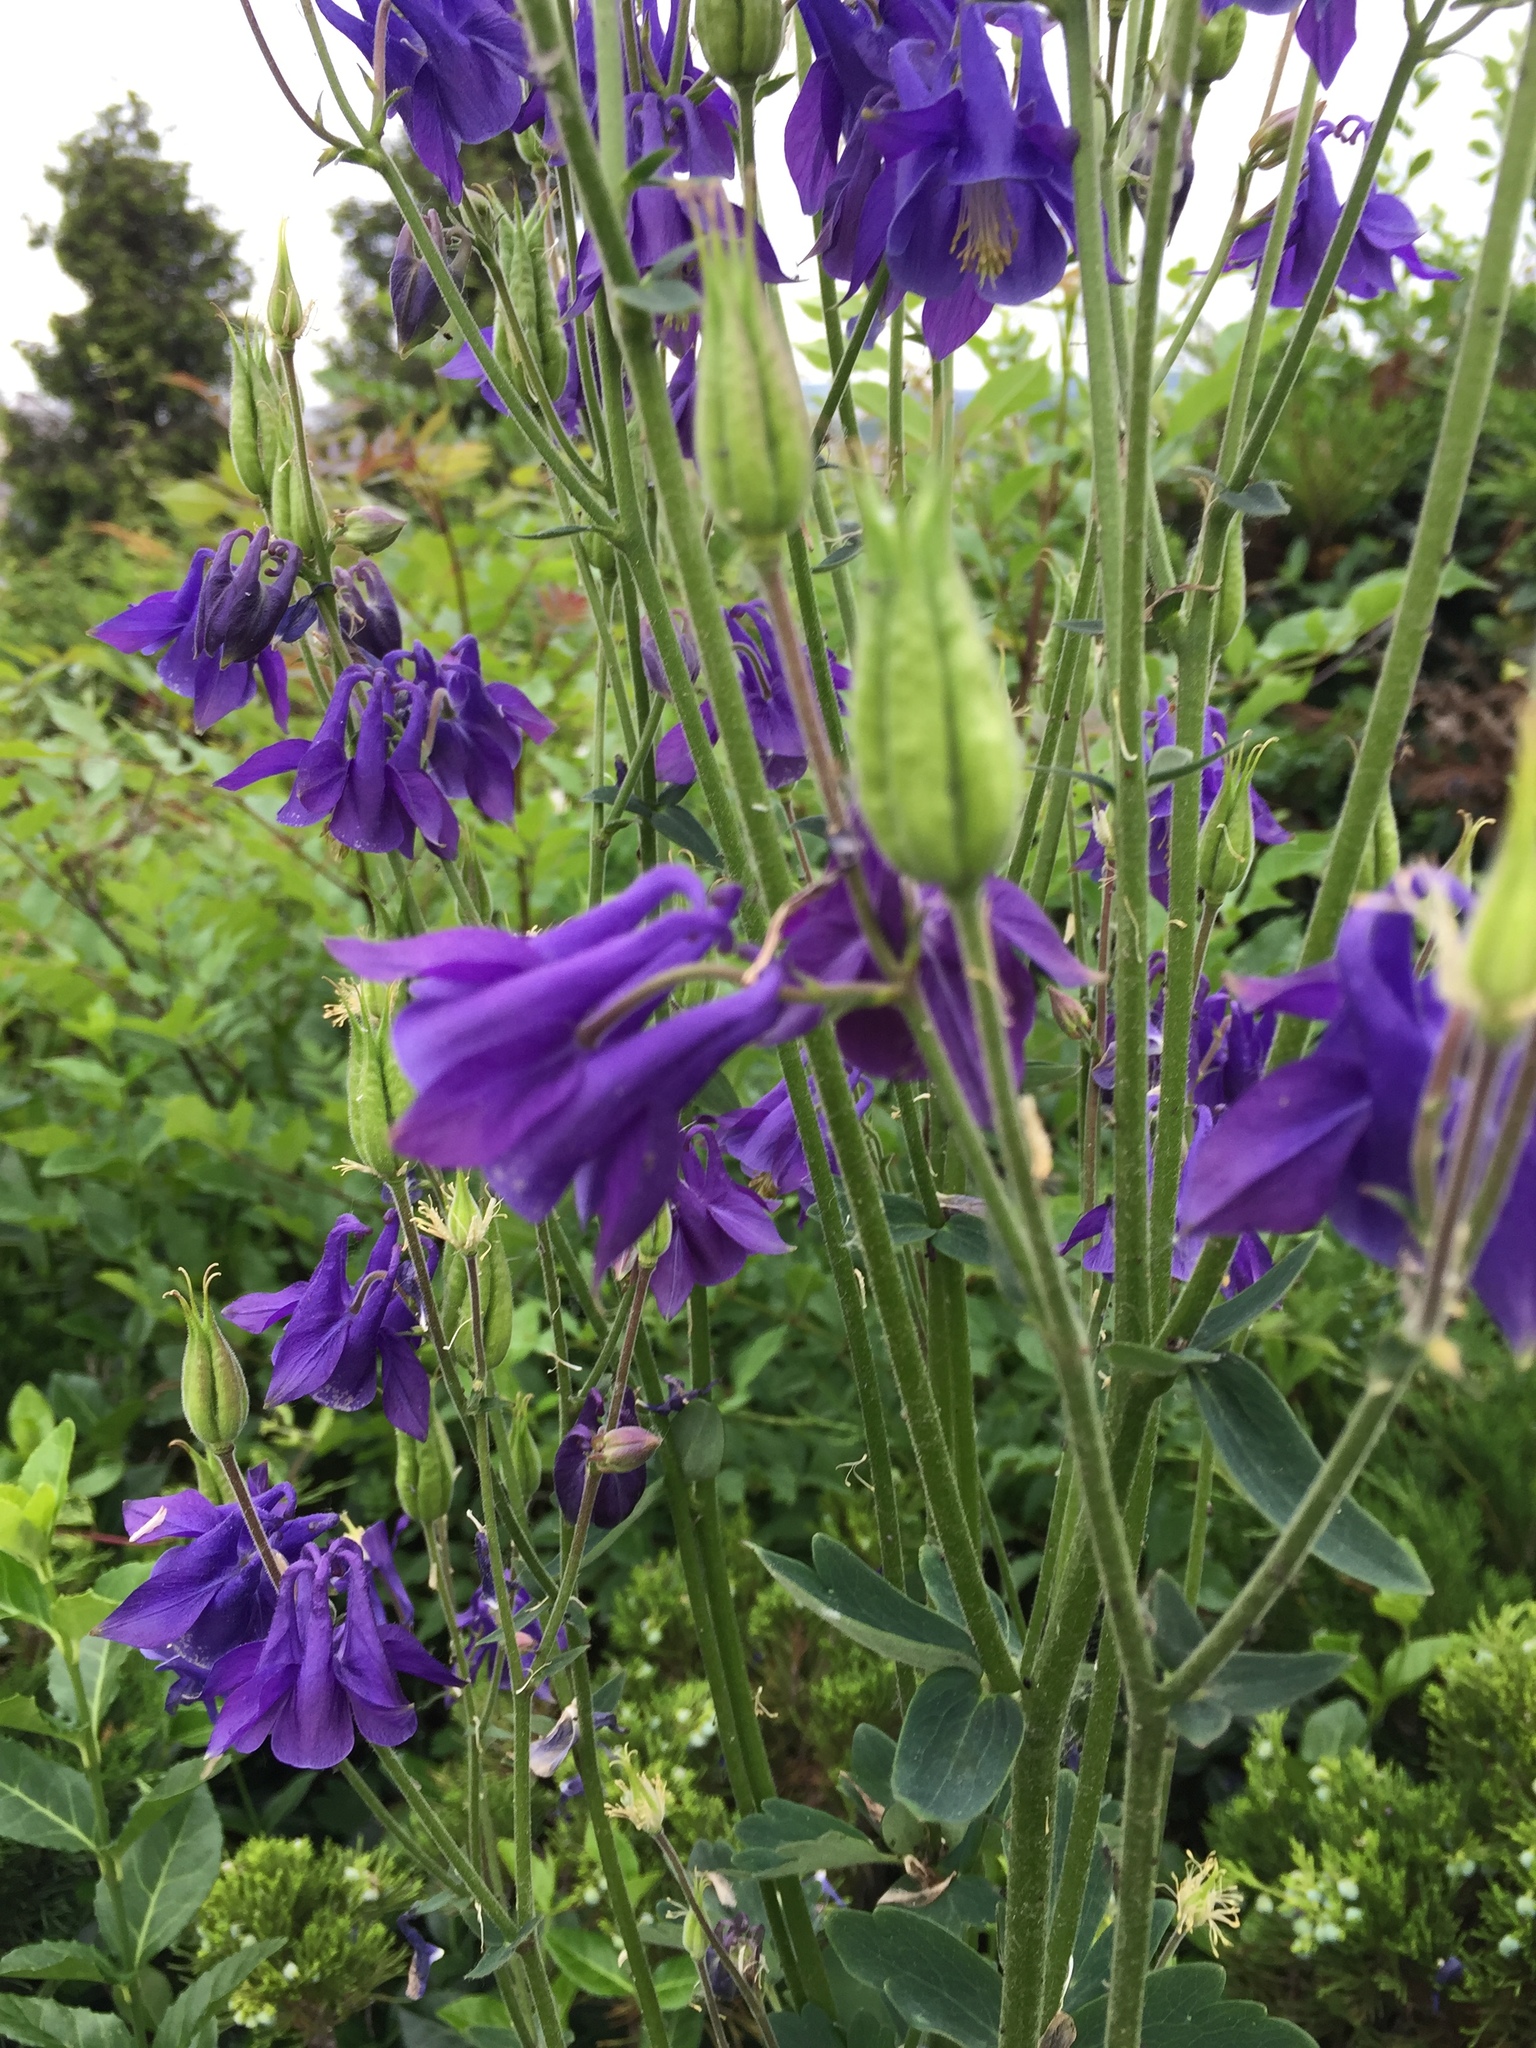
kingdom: Plantae
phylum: Tracheophyta
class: Magnoliopsida
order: Ranunculales
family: Ranunculaceae
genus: Aquilegia
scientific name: Aquilegia vulgaris
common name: Columbine
